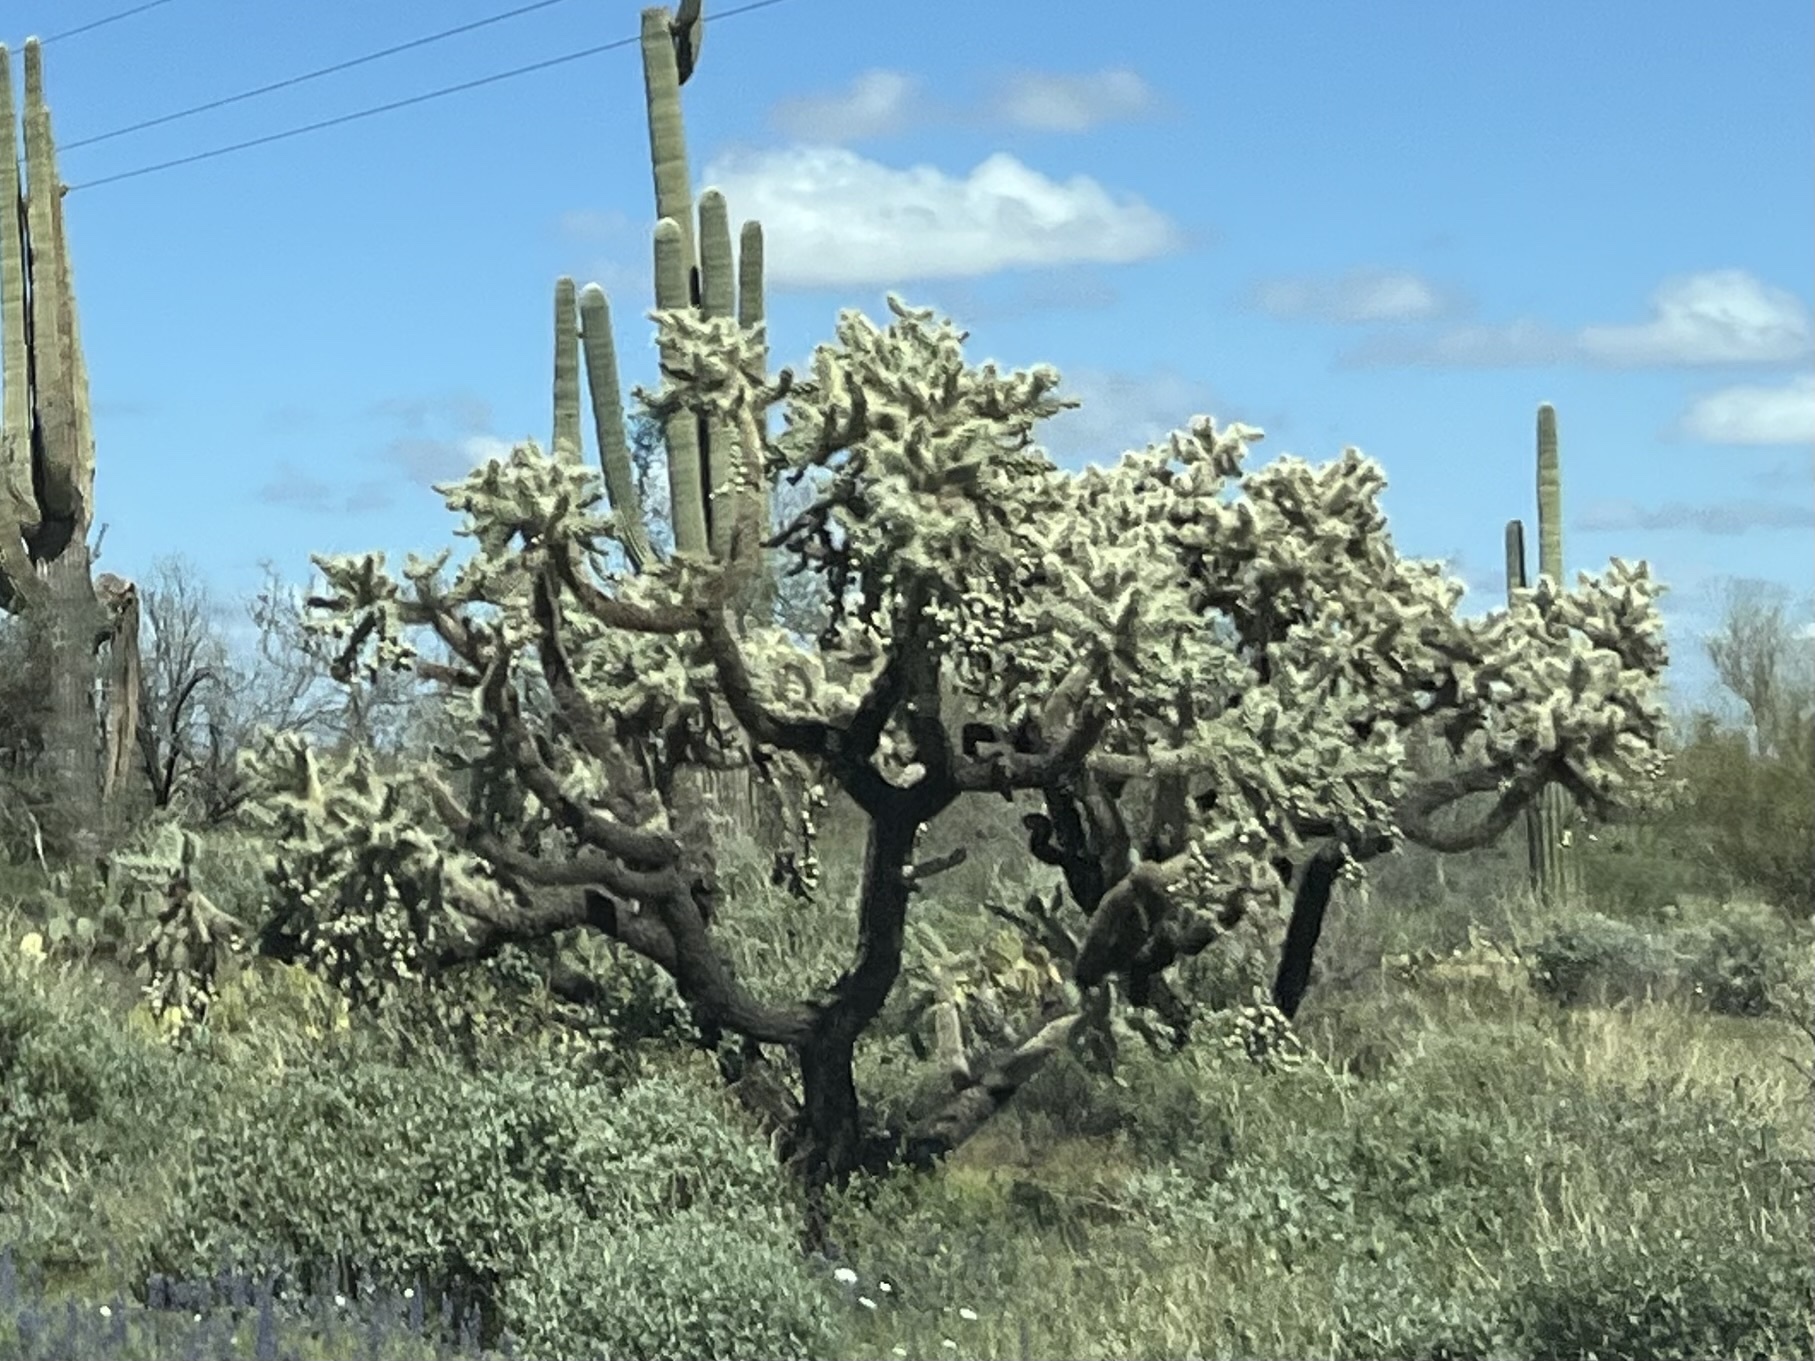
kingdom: Plantae
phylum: Tracheophyta
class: Magnoliopsida
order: Caryophyllales
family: Cactaceae
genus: Cylindropuntia
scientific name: Cylindropuntia fulgida
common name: Jumping cholla
